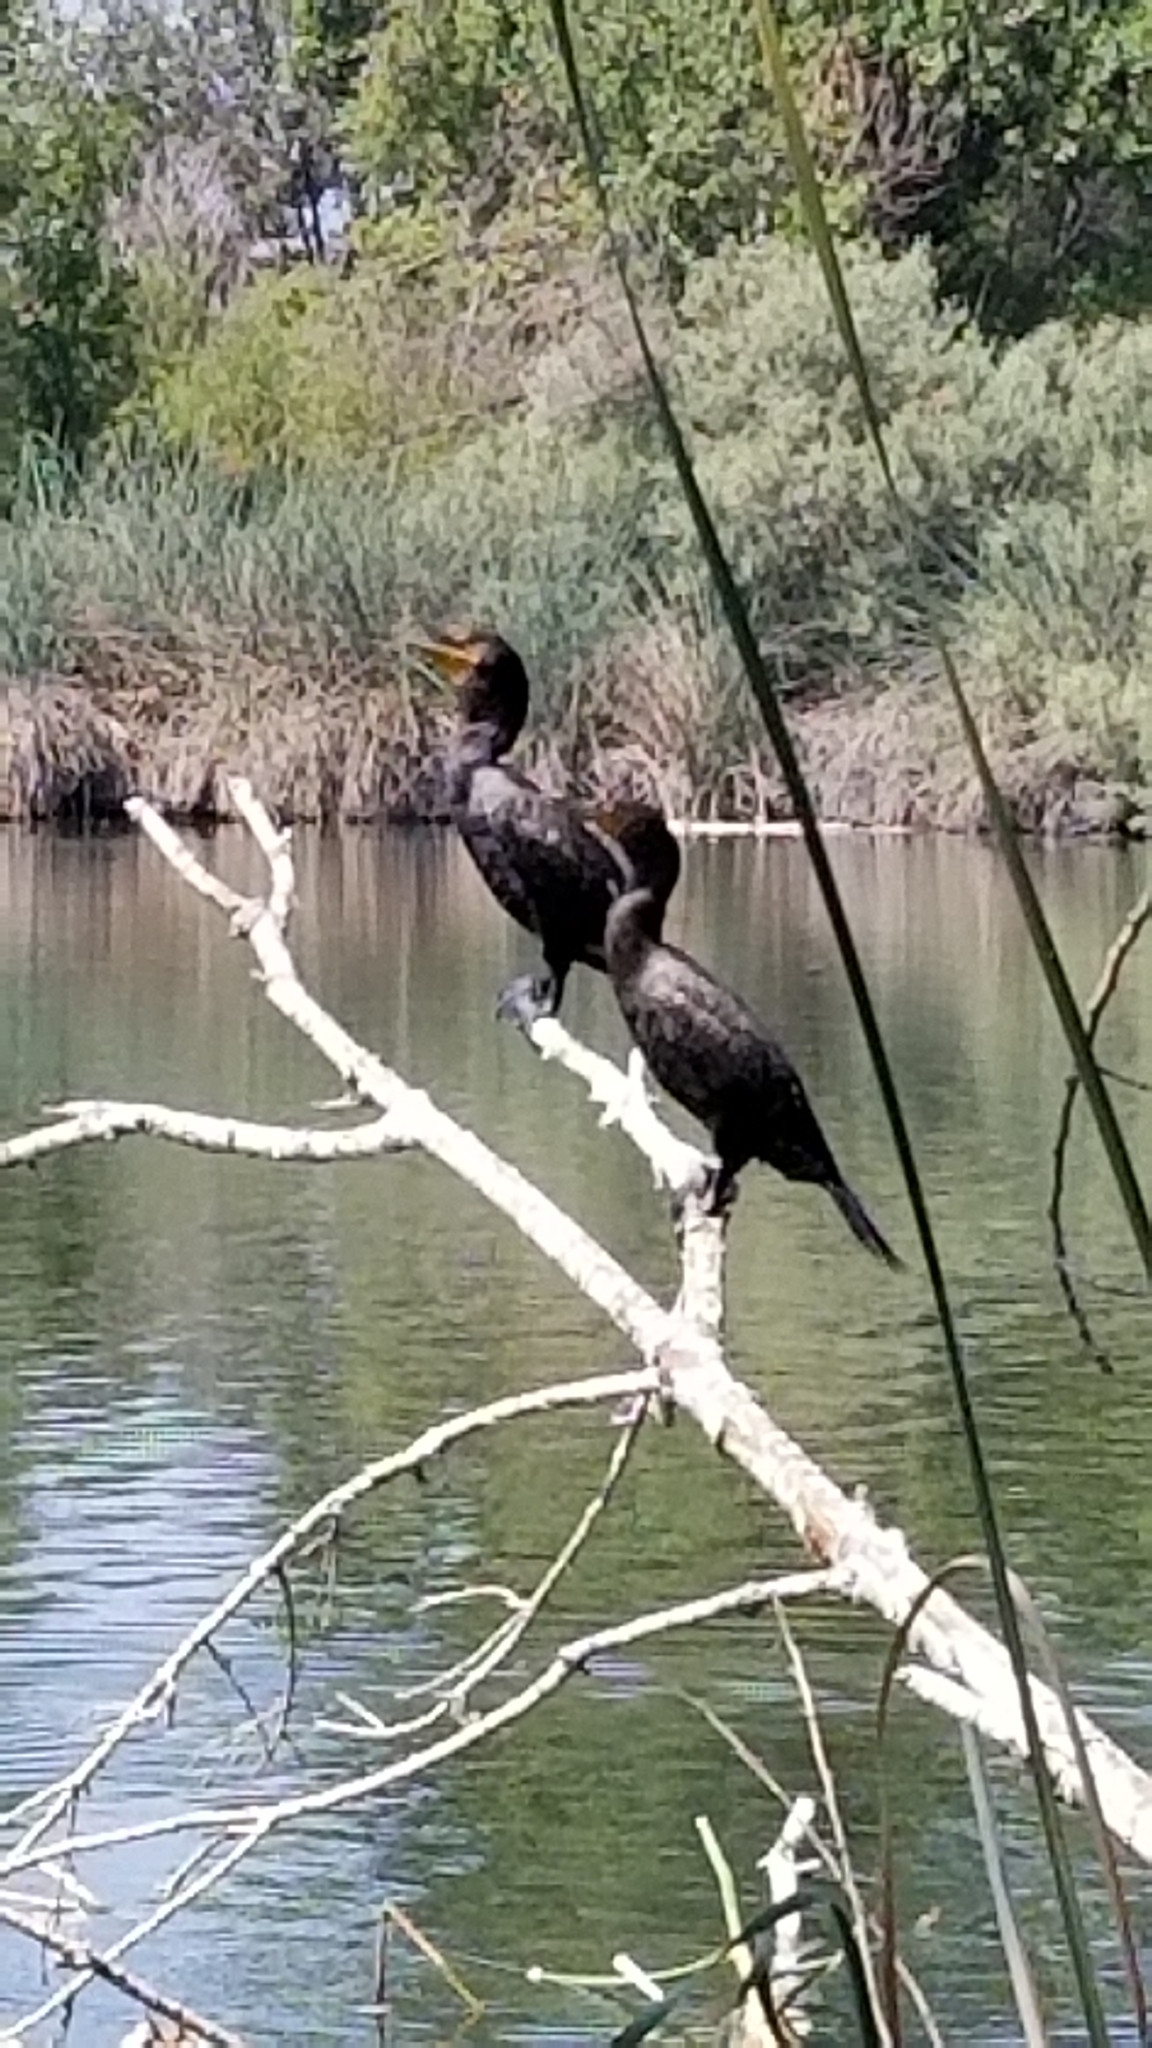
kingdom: Animalia
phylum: Chordata
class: Aves
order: Suliformes
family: Phalacrocoracidae
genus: Phalacrocorax
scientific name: Phalacrocorax auritus
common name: Double-crested cormorant
